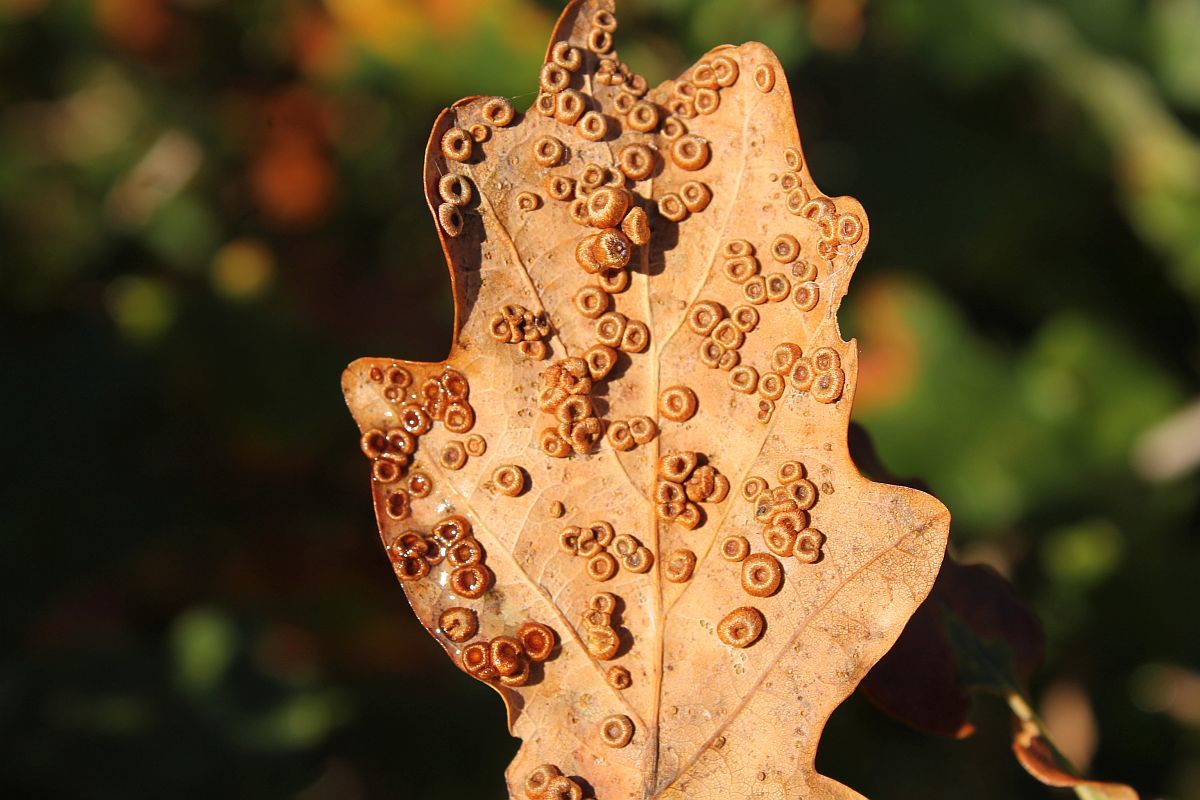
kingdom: Animalia
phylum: Arthropoda
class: Insecta
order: Hymenoptera
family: Cynipidae
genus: Neuroterus
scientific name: Neuroterus numismalis
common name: Silk-button spangle gall
